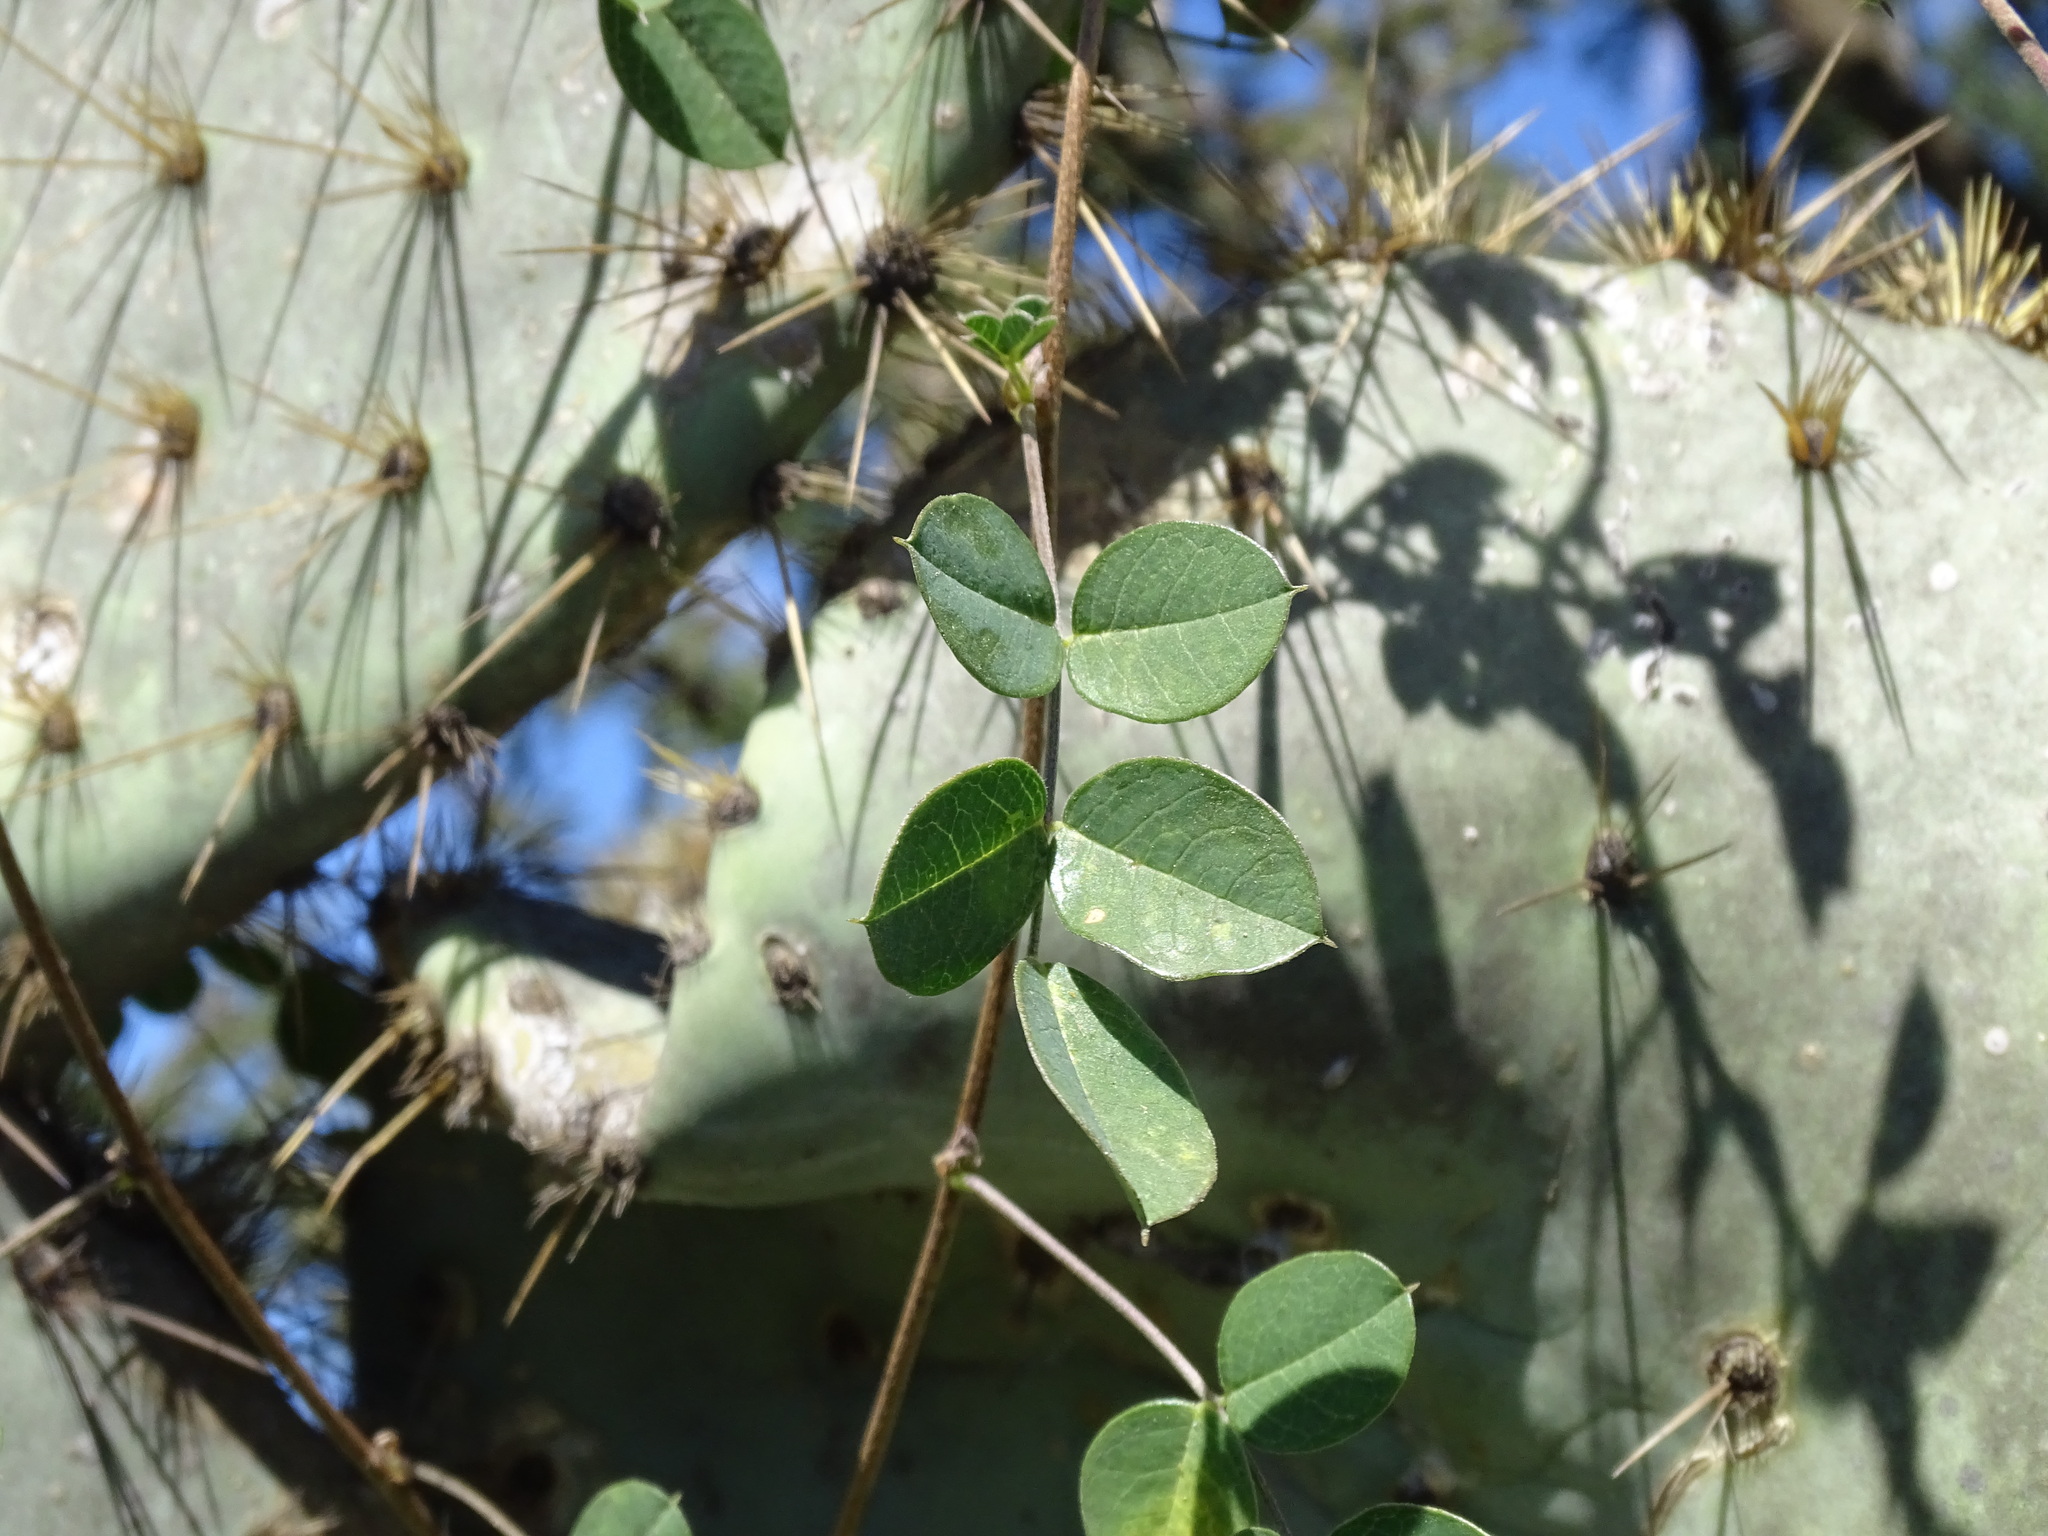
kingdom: Plantae
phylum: Tracheophyta
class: Magnoliopsida
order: Fabales
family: Fabaceae
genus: Nanogalactia
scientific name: Nanogalactia brachystachys
